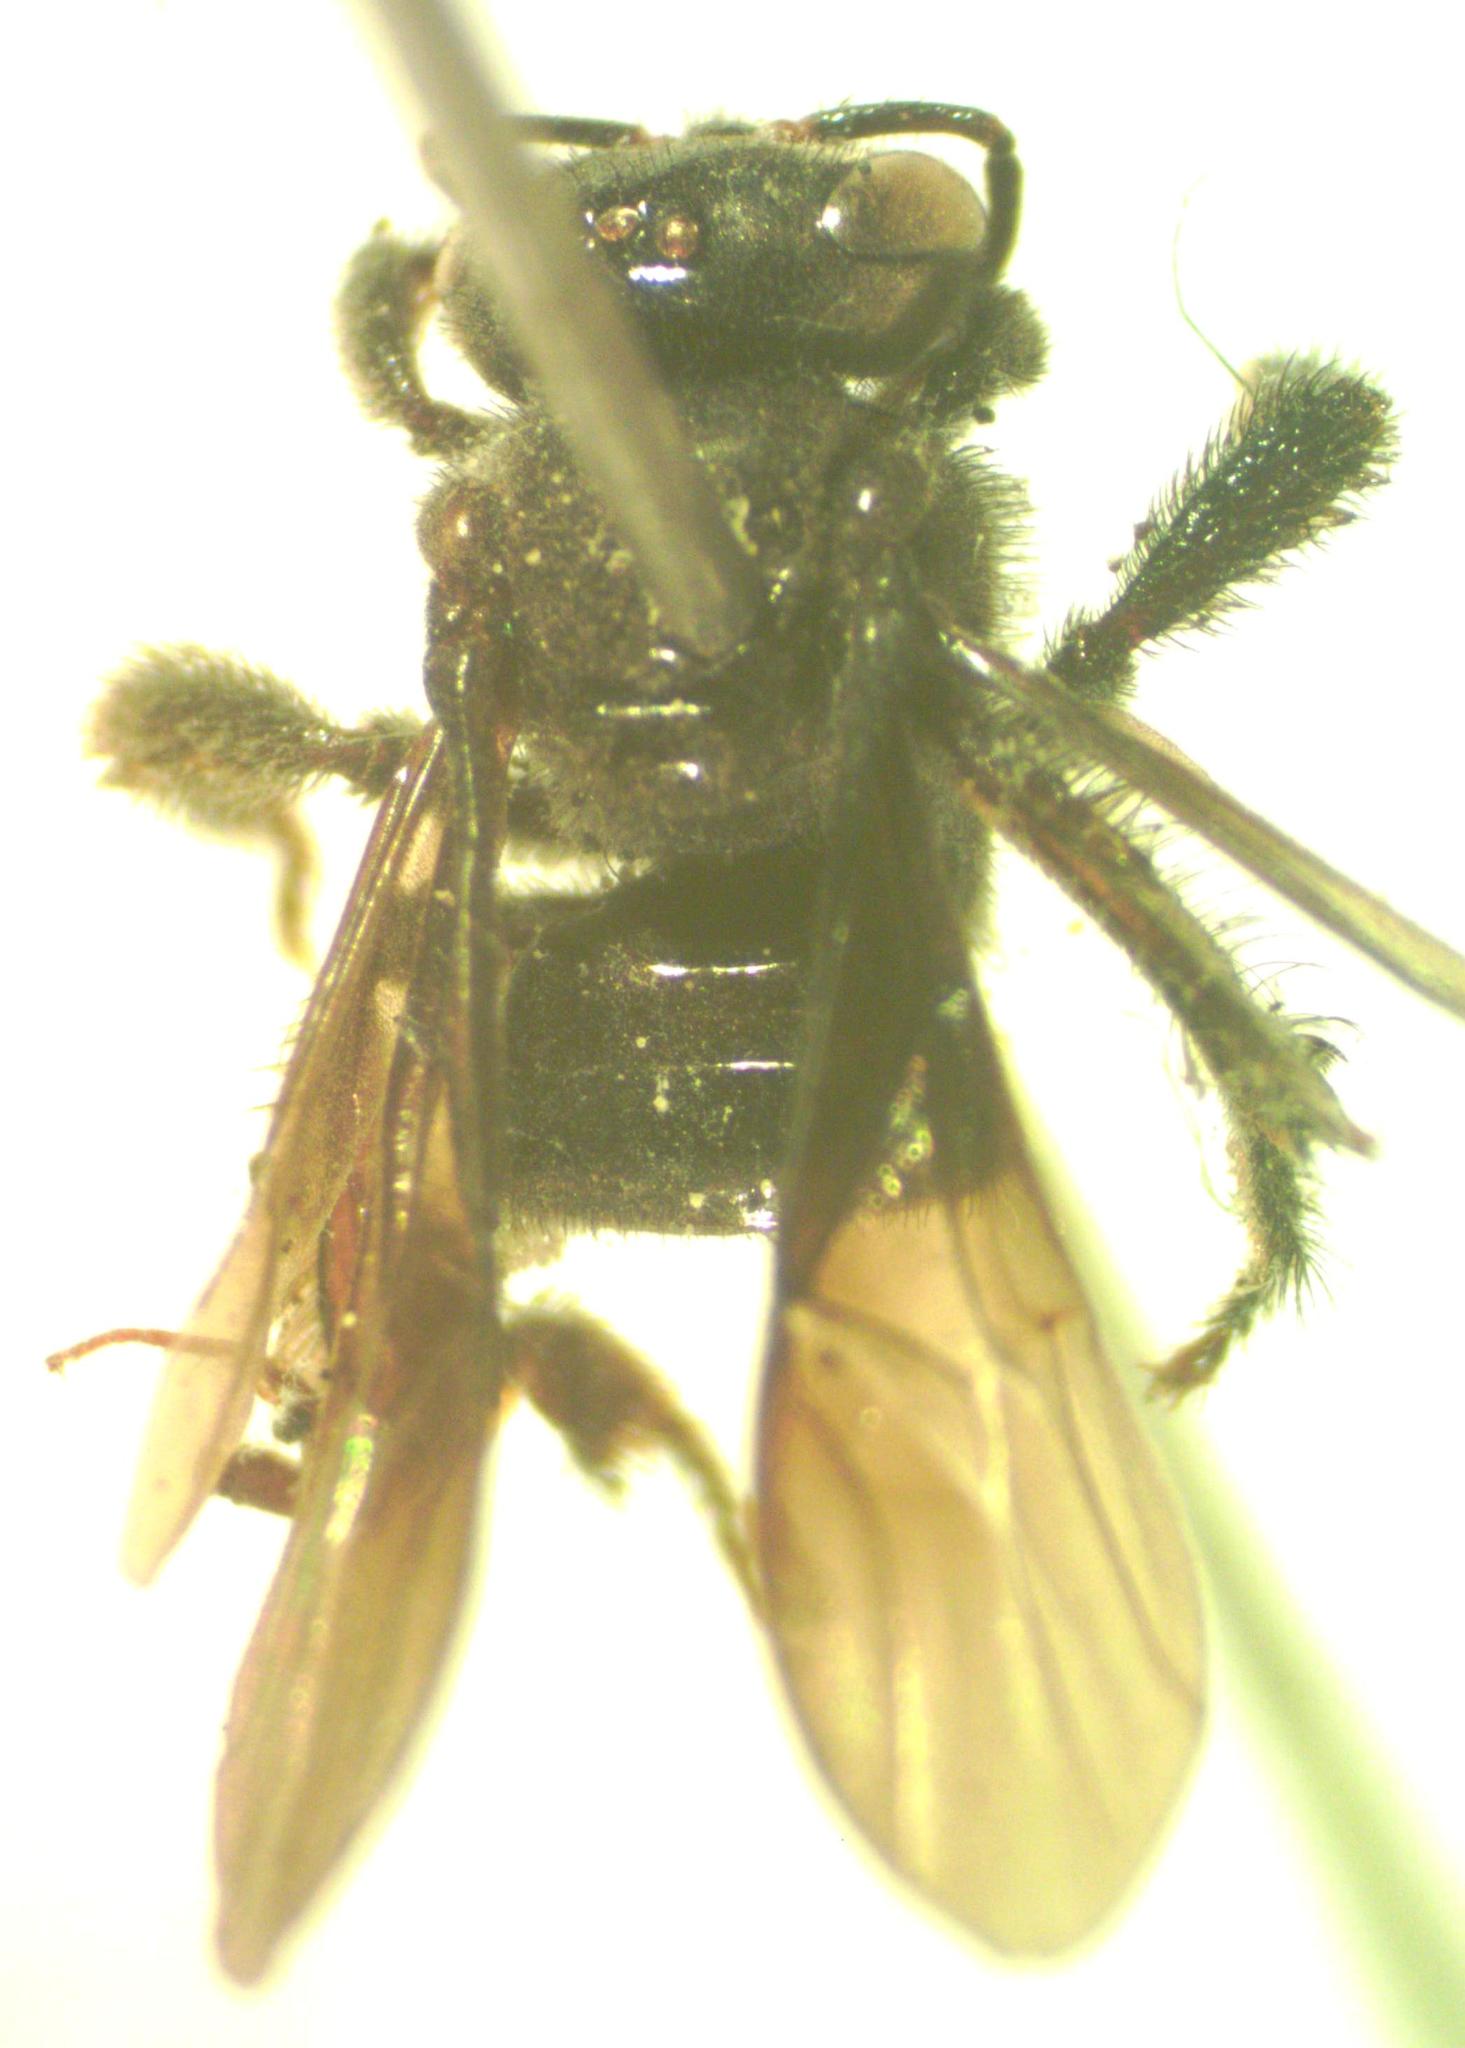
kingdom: Animalia
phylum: Arthropoda
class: Insecta
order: Hymenoptera
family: Apidae
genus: Trigona
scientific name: Trigona corvina
